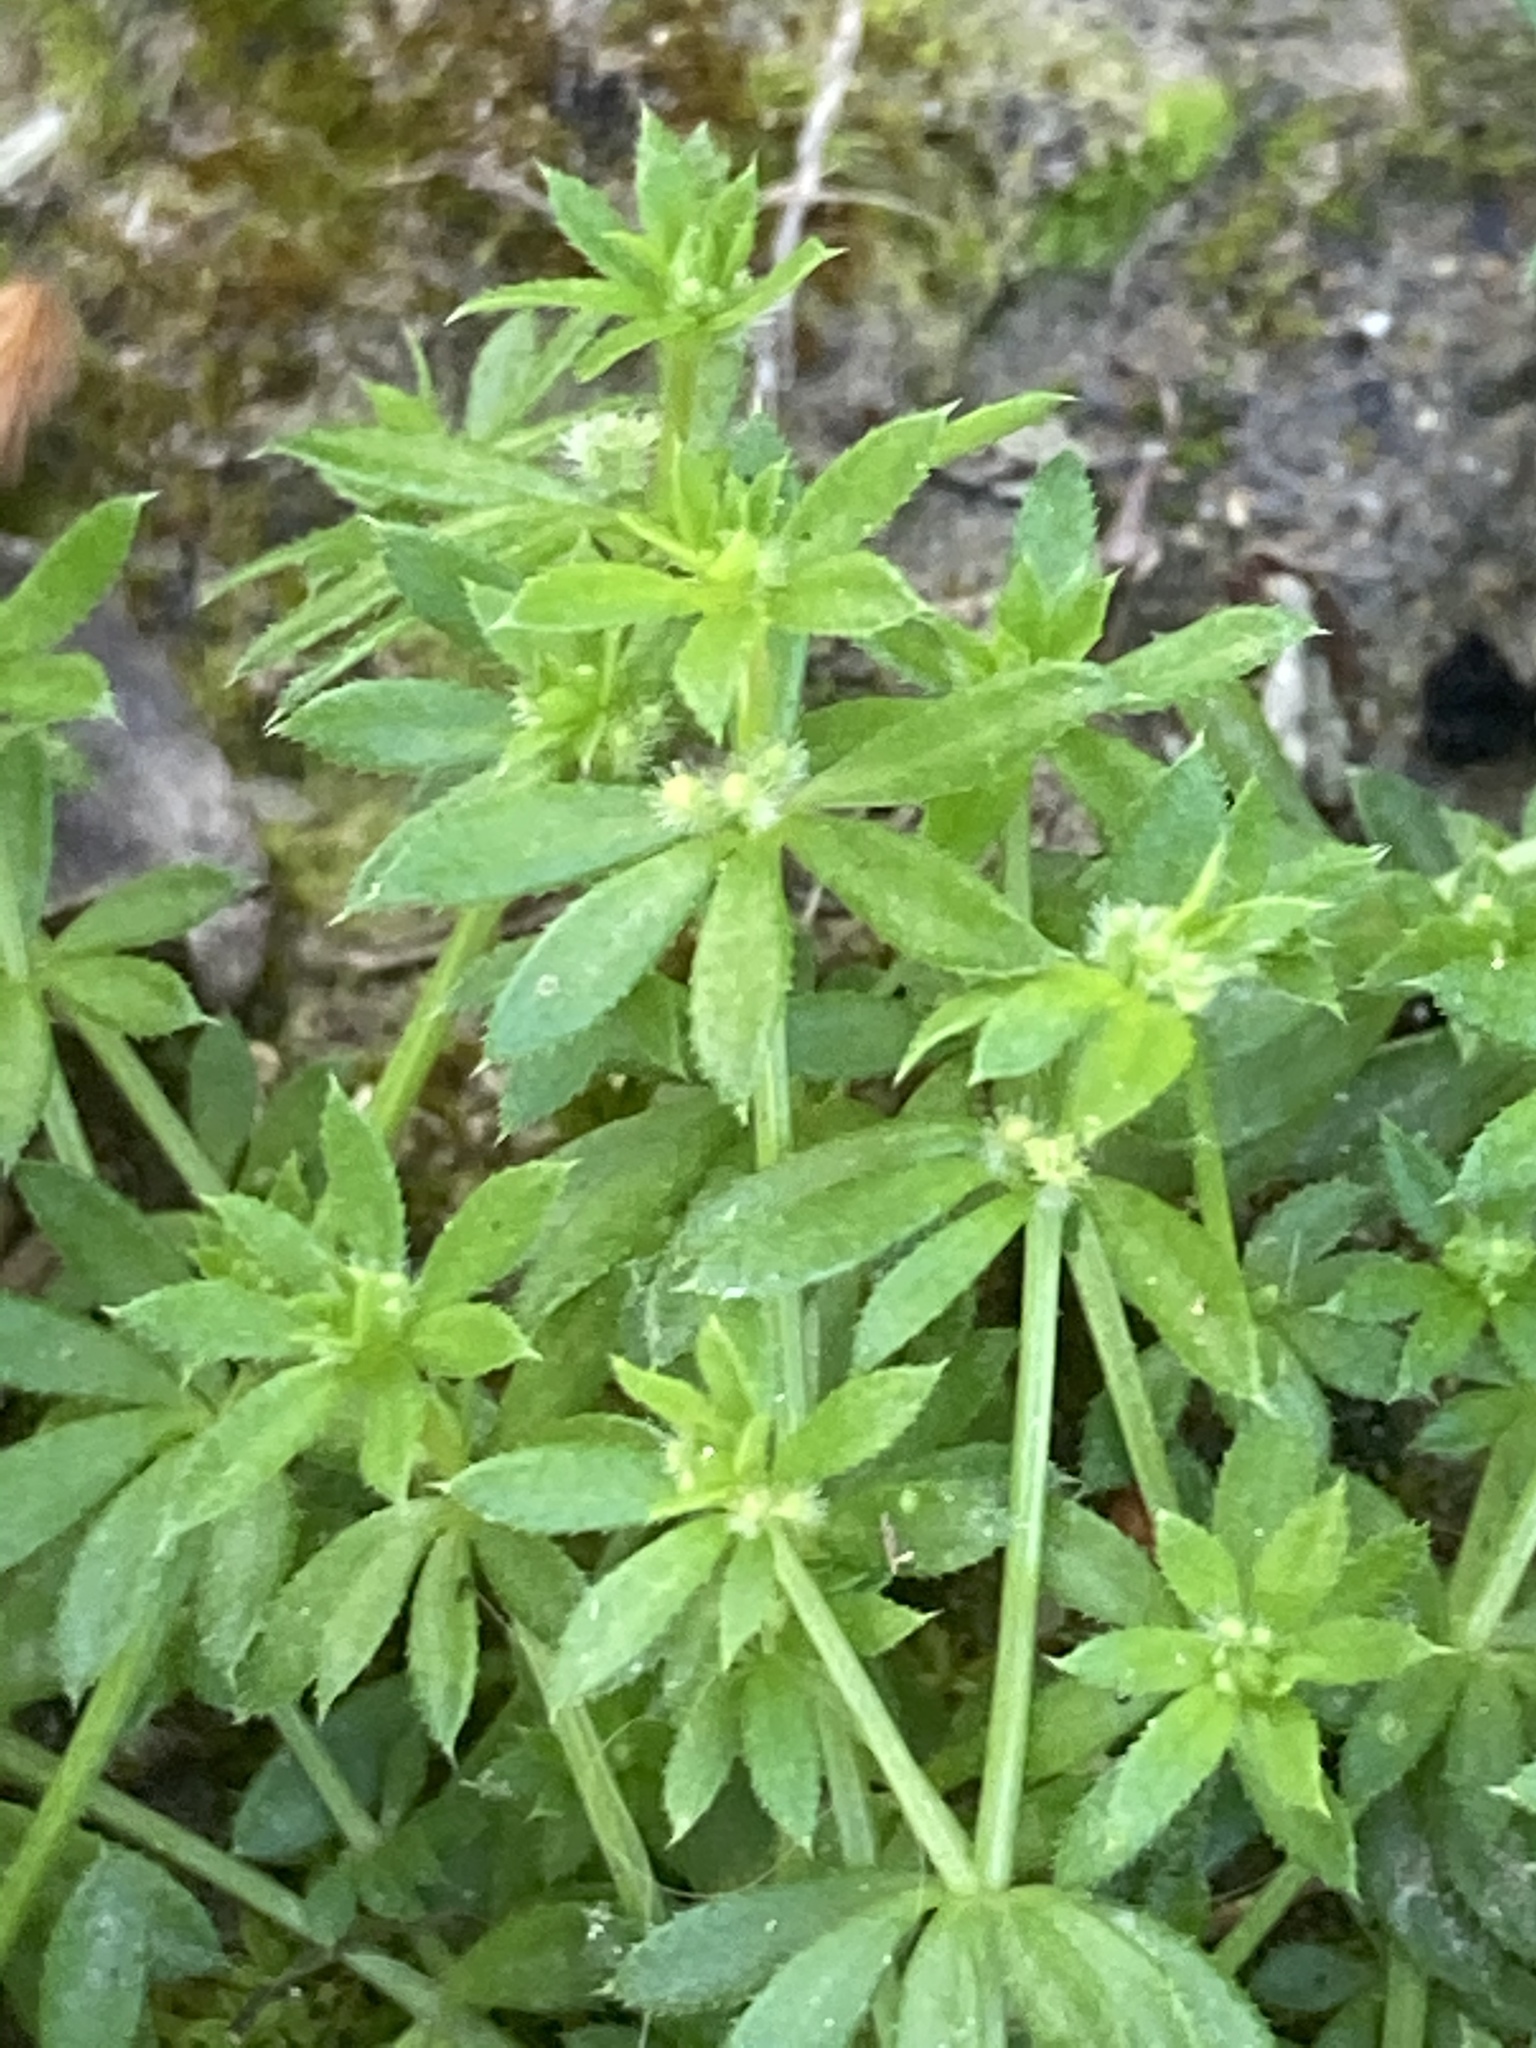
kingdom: Plantae
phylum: Tracheophyta
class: Magnoliopsida
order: Gentianales
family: Rubiaceae
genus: Galium
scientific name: Galium parisiense
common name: Wall bedstraw
